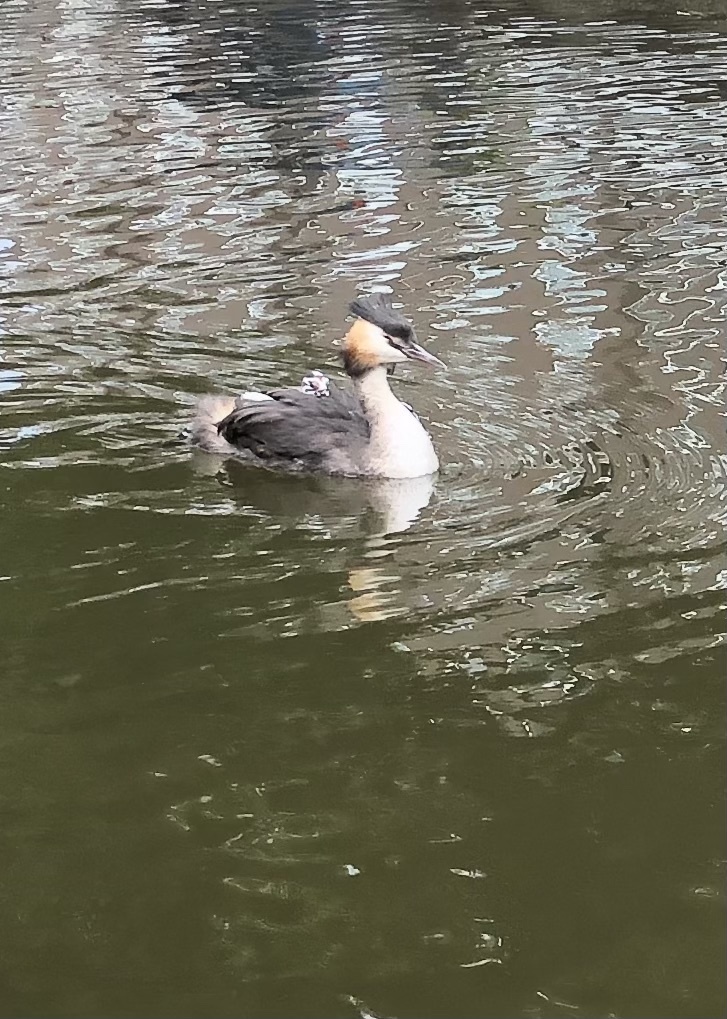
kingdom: Animalia
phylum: Chordata
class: Aves
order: Podicipediformes
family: Podicipedidae
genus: Podiceps
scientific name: Podiceps cristatus
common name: Great crested grebe
